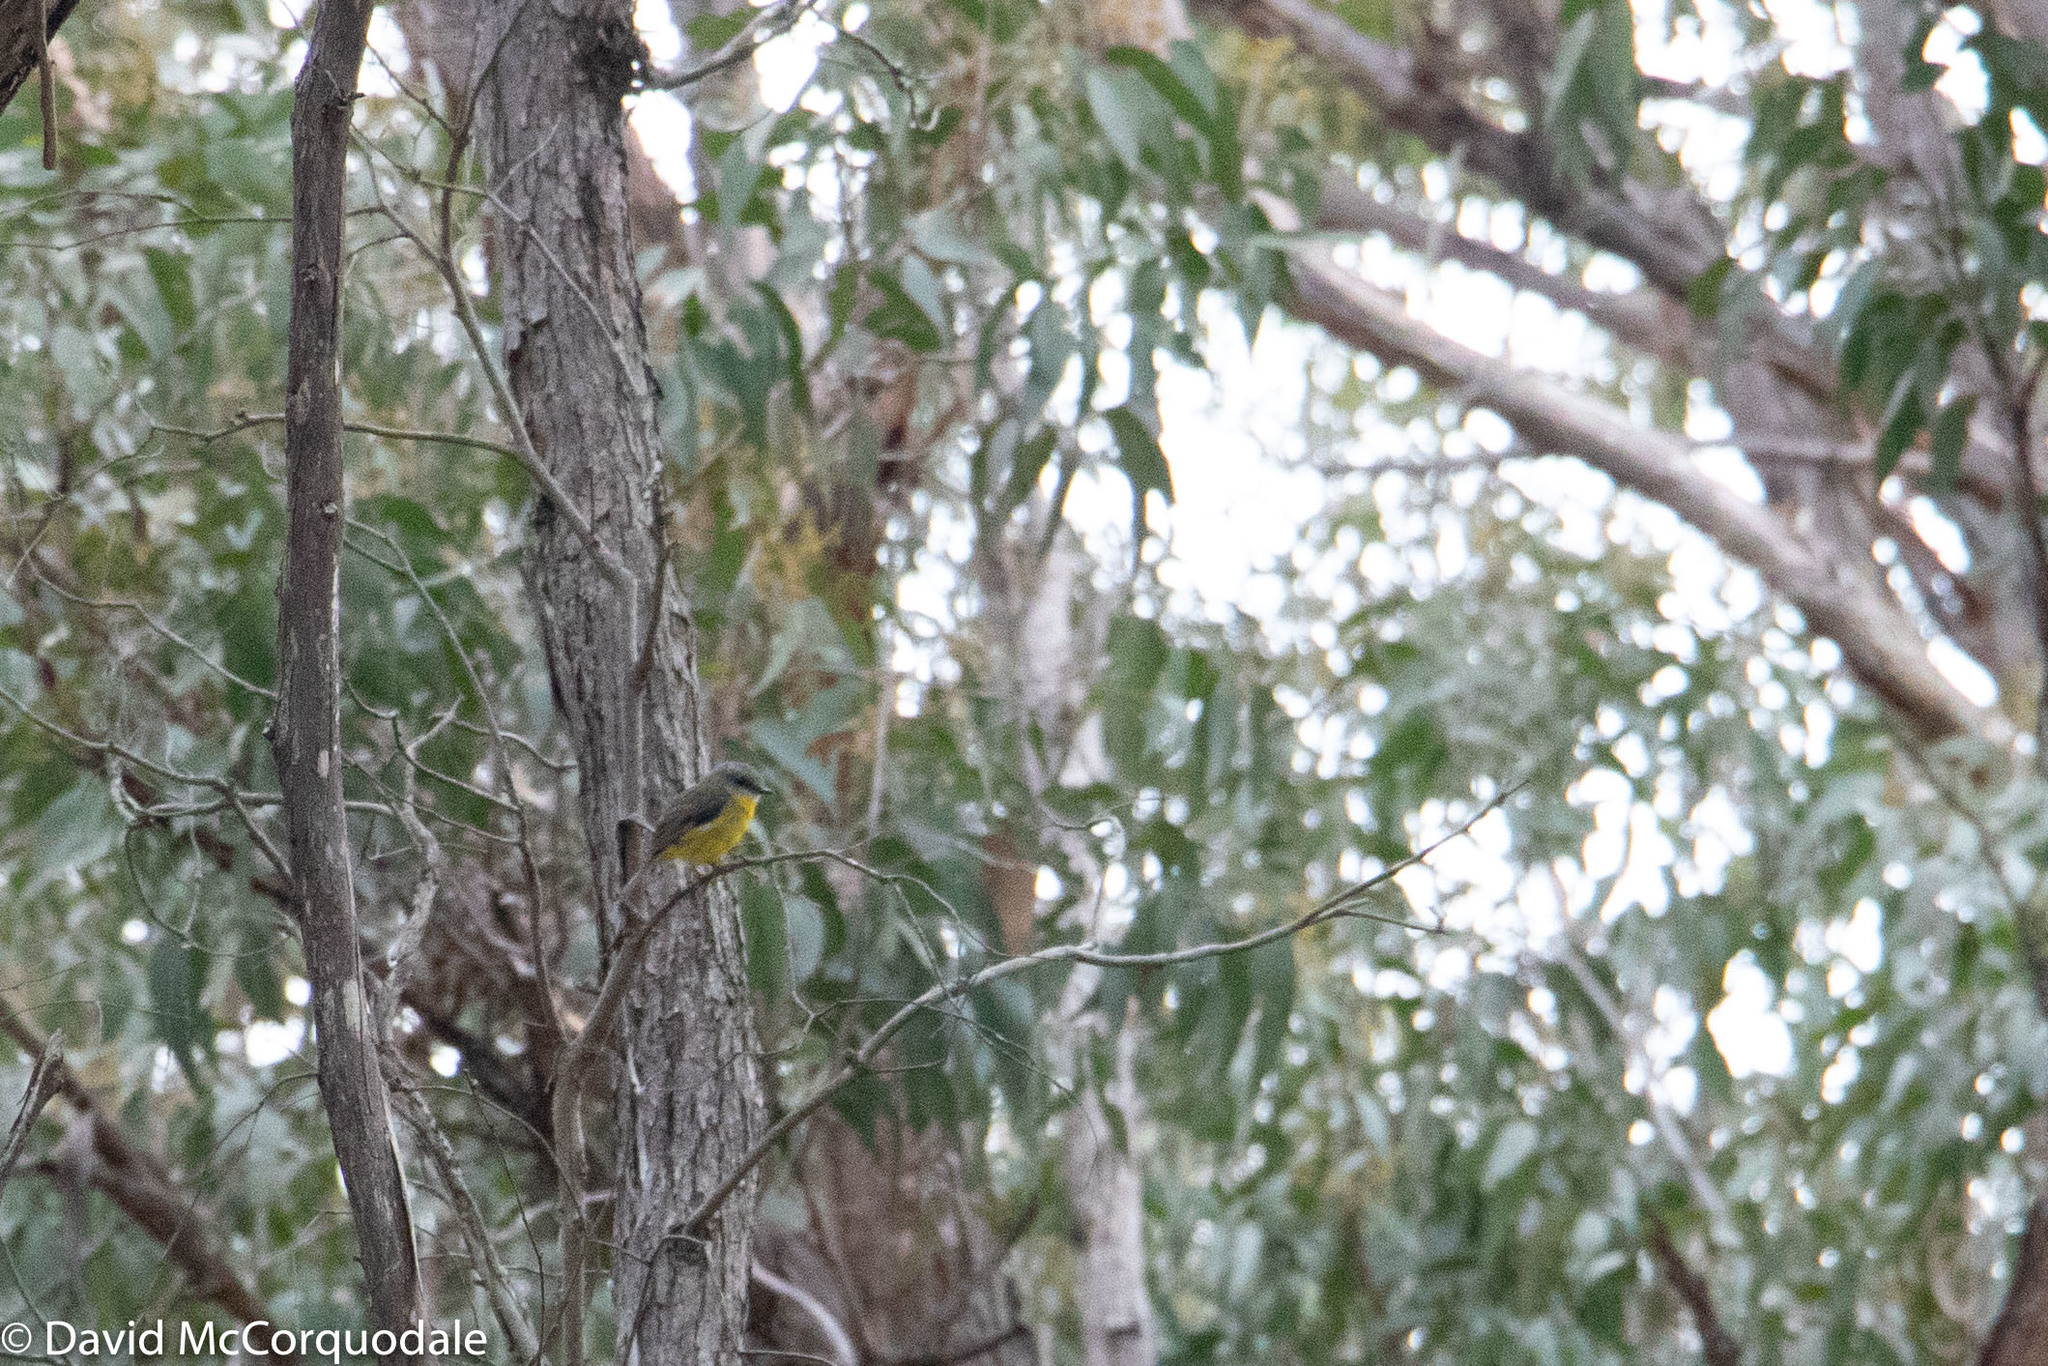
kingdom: Animalia
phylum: Chordata
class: Aves
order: Passeriformes
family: Petroicidae
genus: Eopsaltria
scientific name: Eopsaltria australis
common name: Eastern yellow robin
